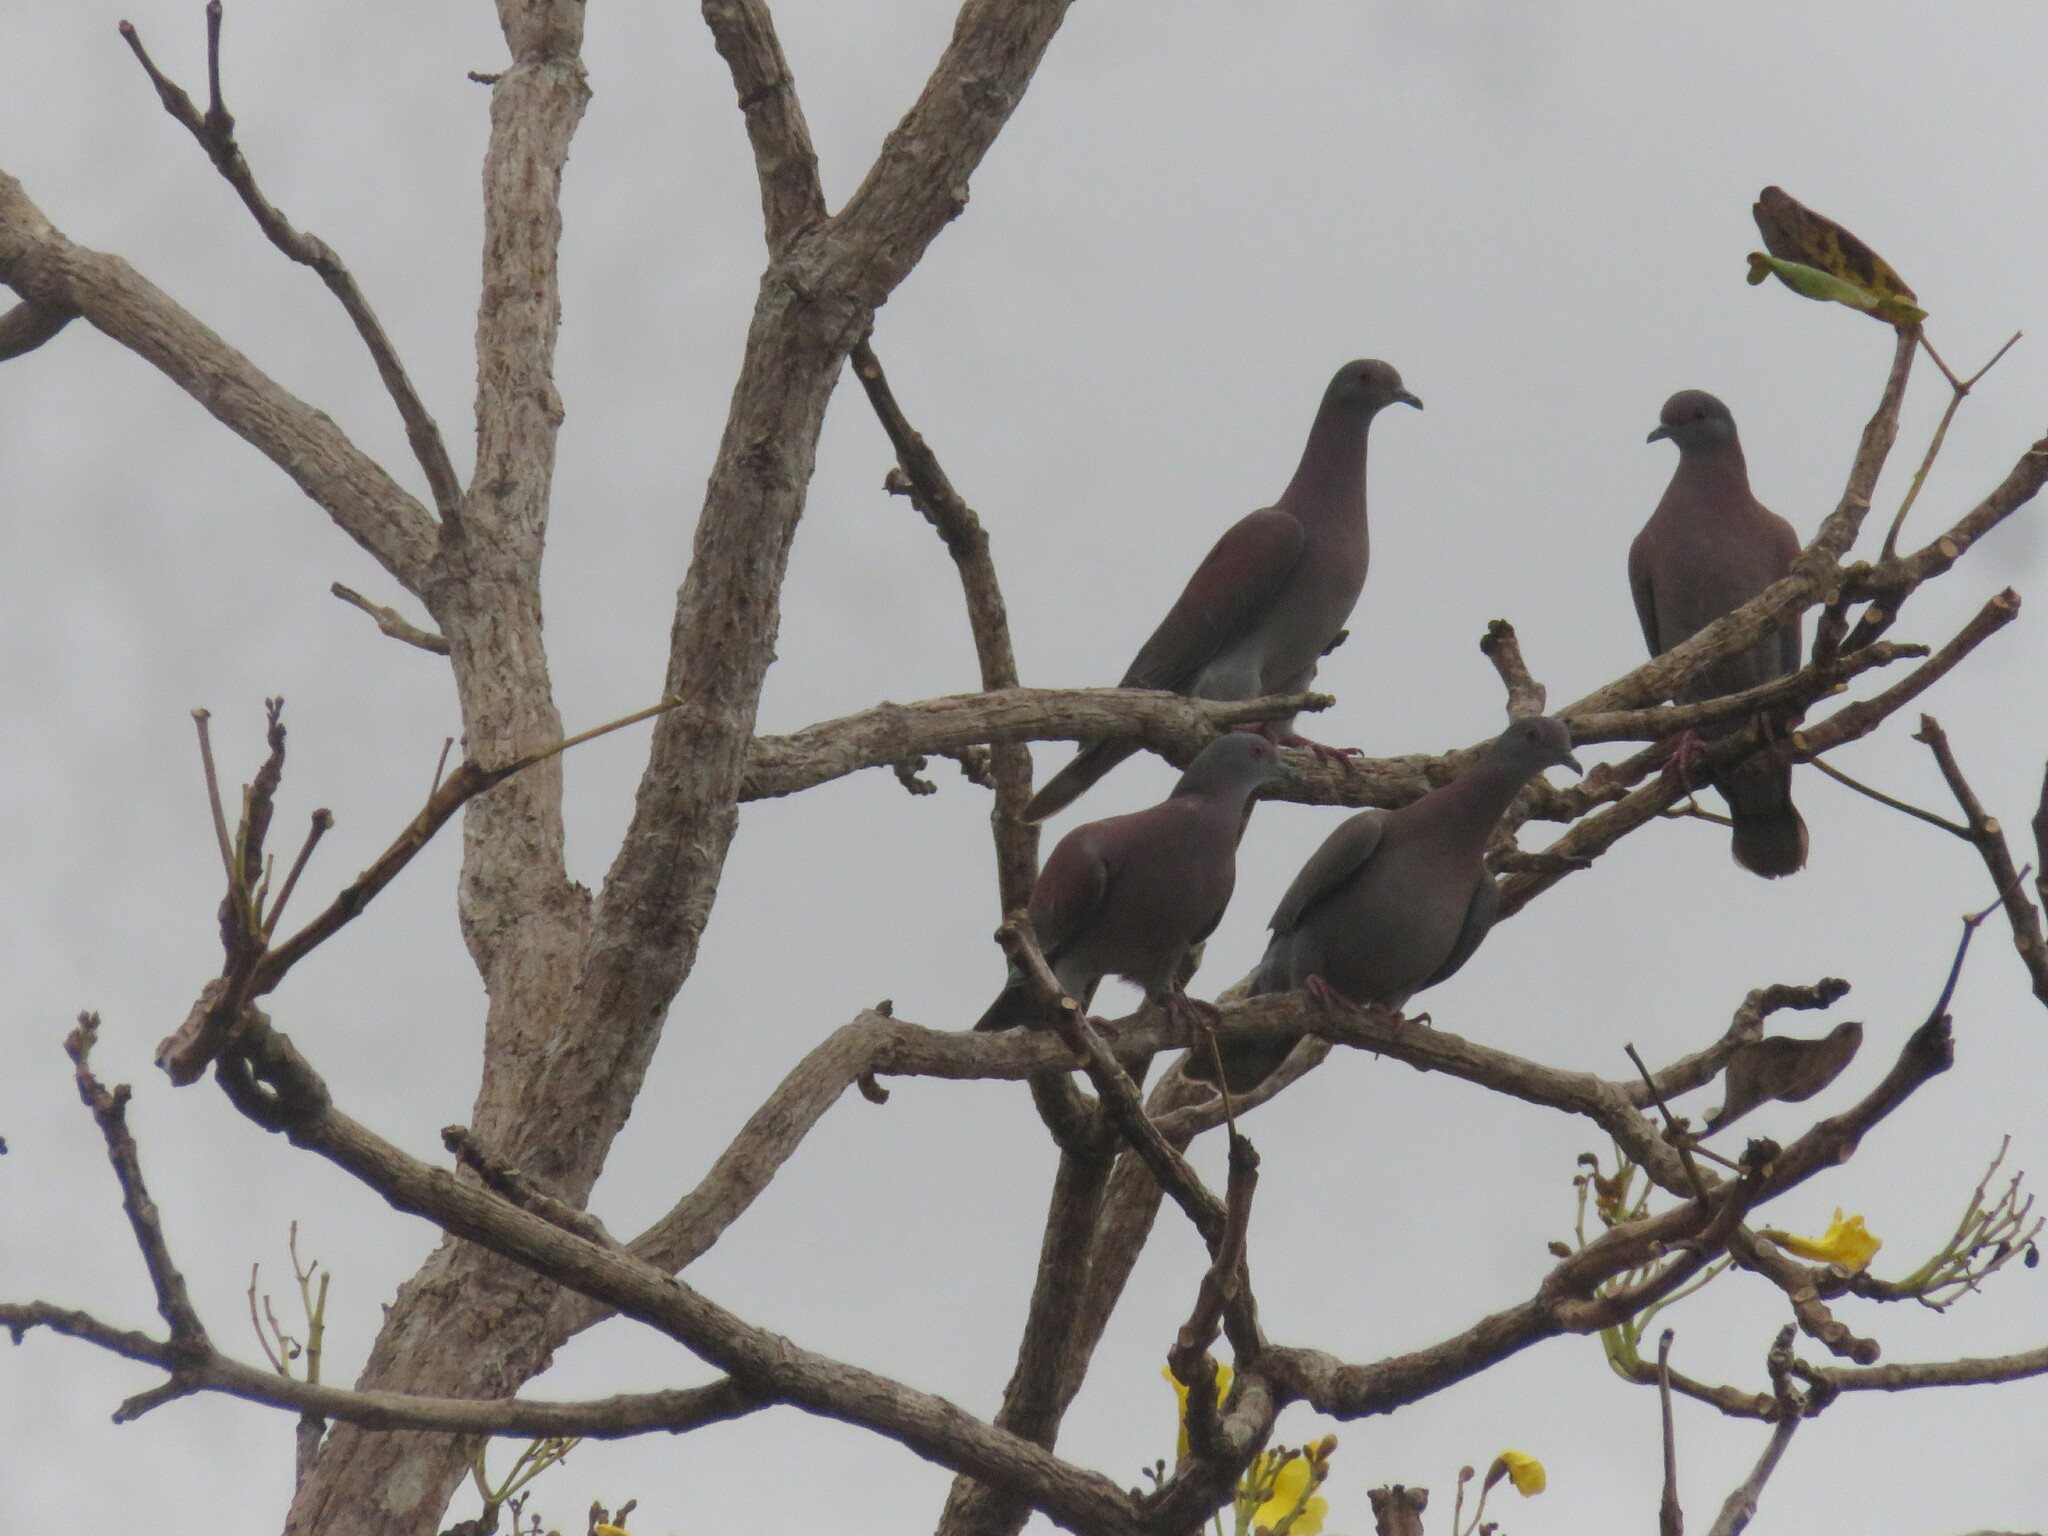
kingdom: Animalia
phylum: Chordata
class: Aves
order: Columbiformes
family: Columbidae
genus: Patagioenas
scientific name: Patagioenas cayennensis
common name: Pale-vented pigeon
